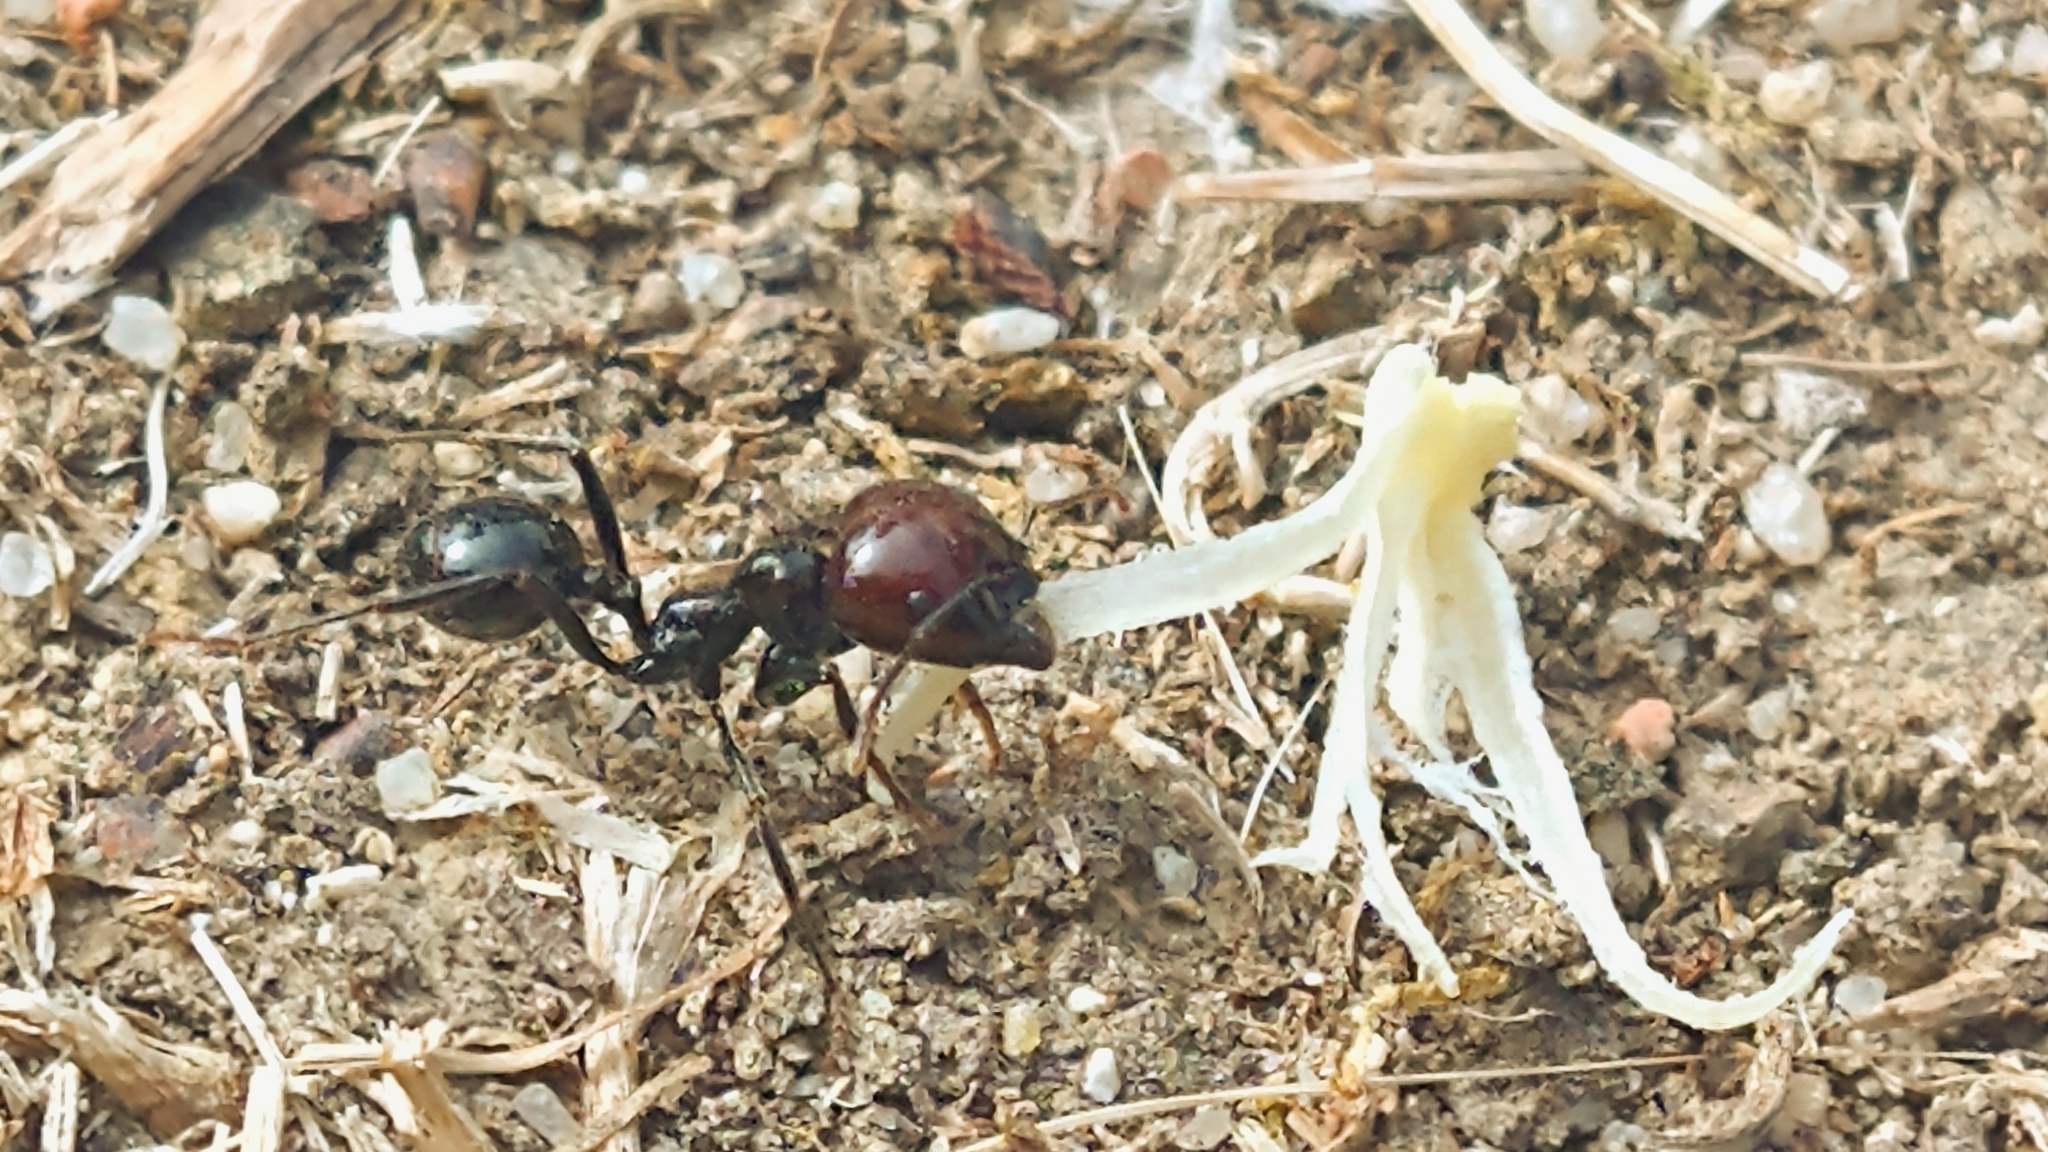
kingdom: Animalia
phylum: Arthropoda
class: Insecta
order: Hymenoptera
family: Formicidae
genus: Messor
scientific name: Messor barbarus
